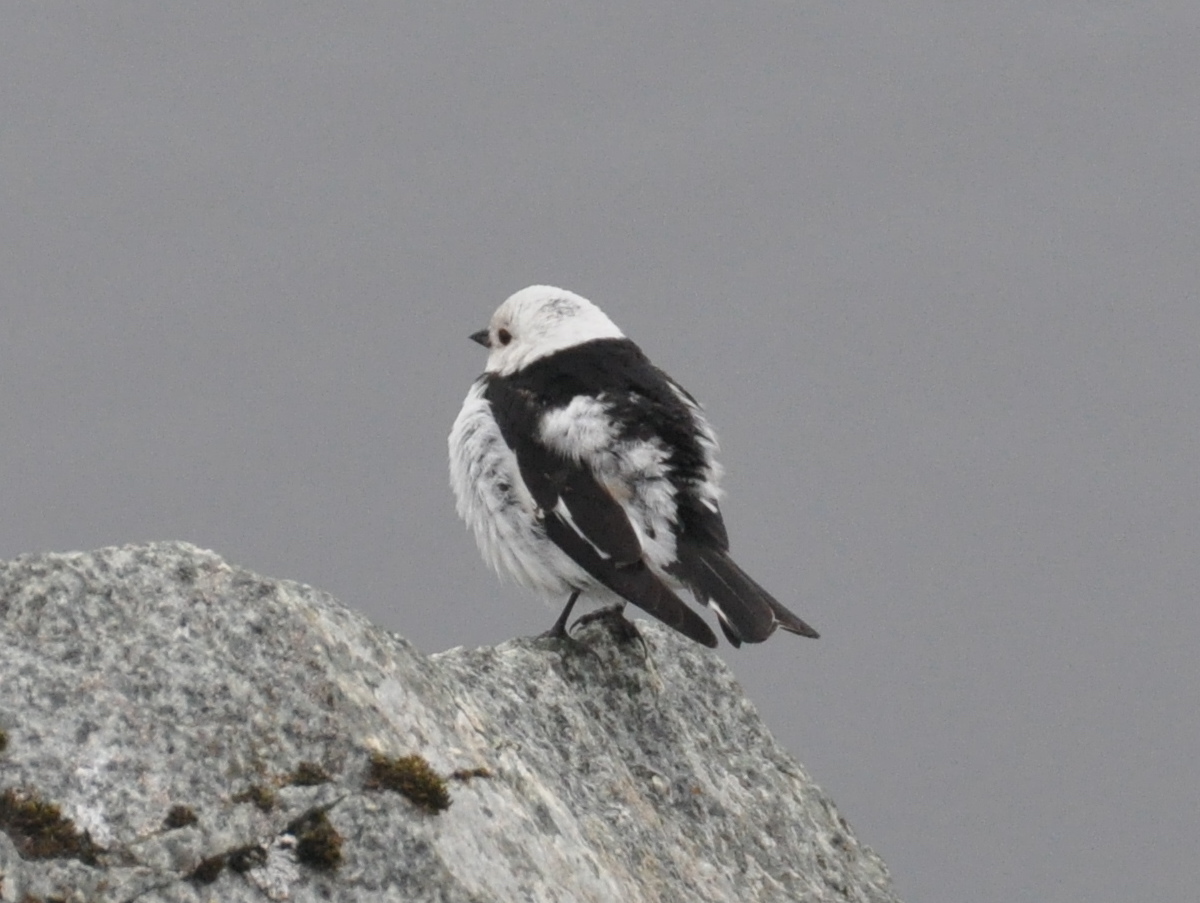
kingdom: Animalia
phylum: Chordata
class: Aves
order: Passeriformes
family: Calcariidae
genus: Plectrophenax
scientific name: Plectrophenax nivalis
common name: Snow bunting
